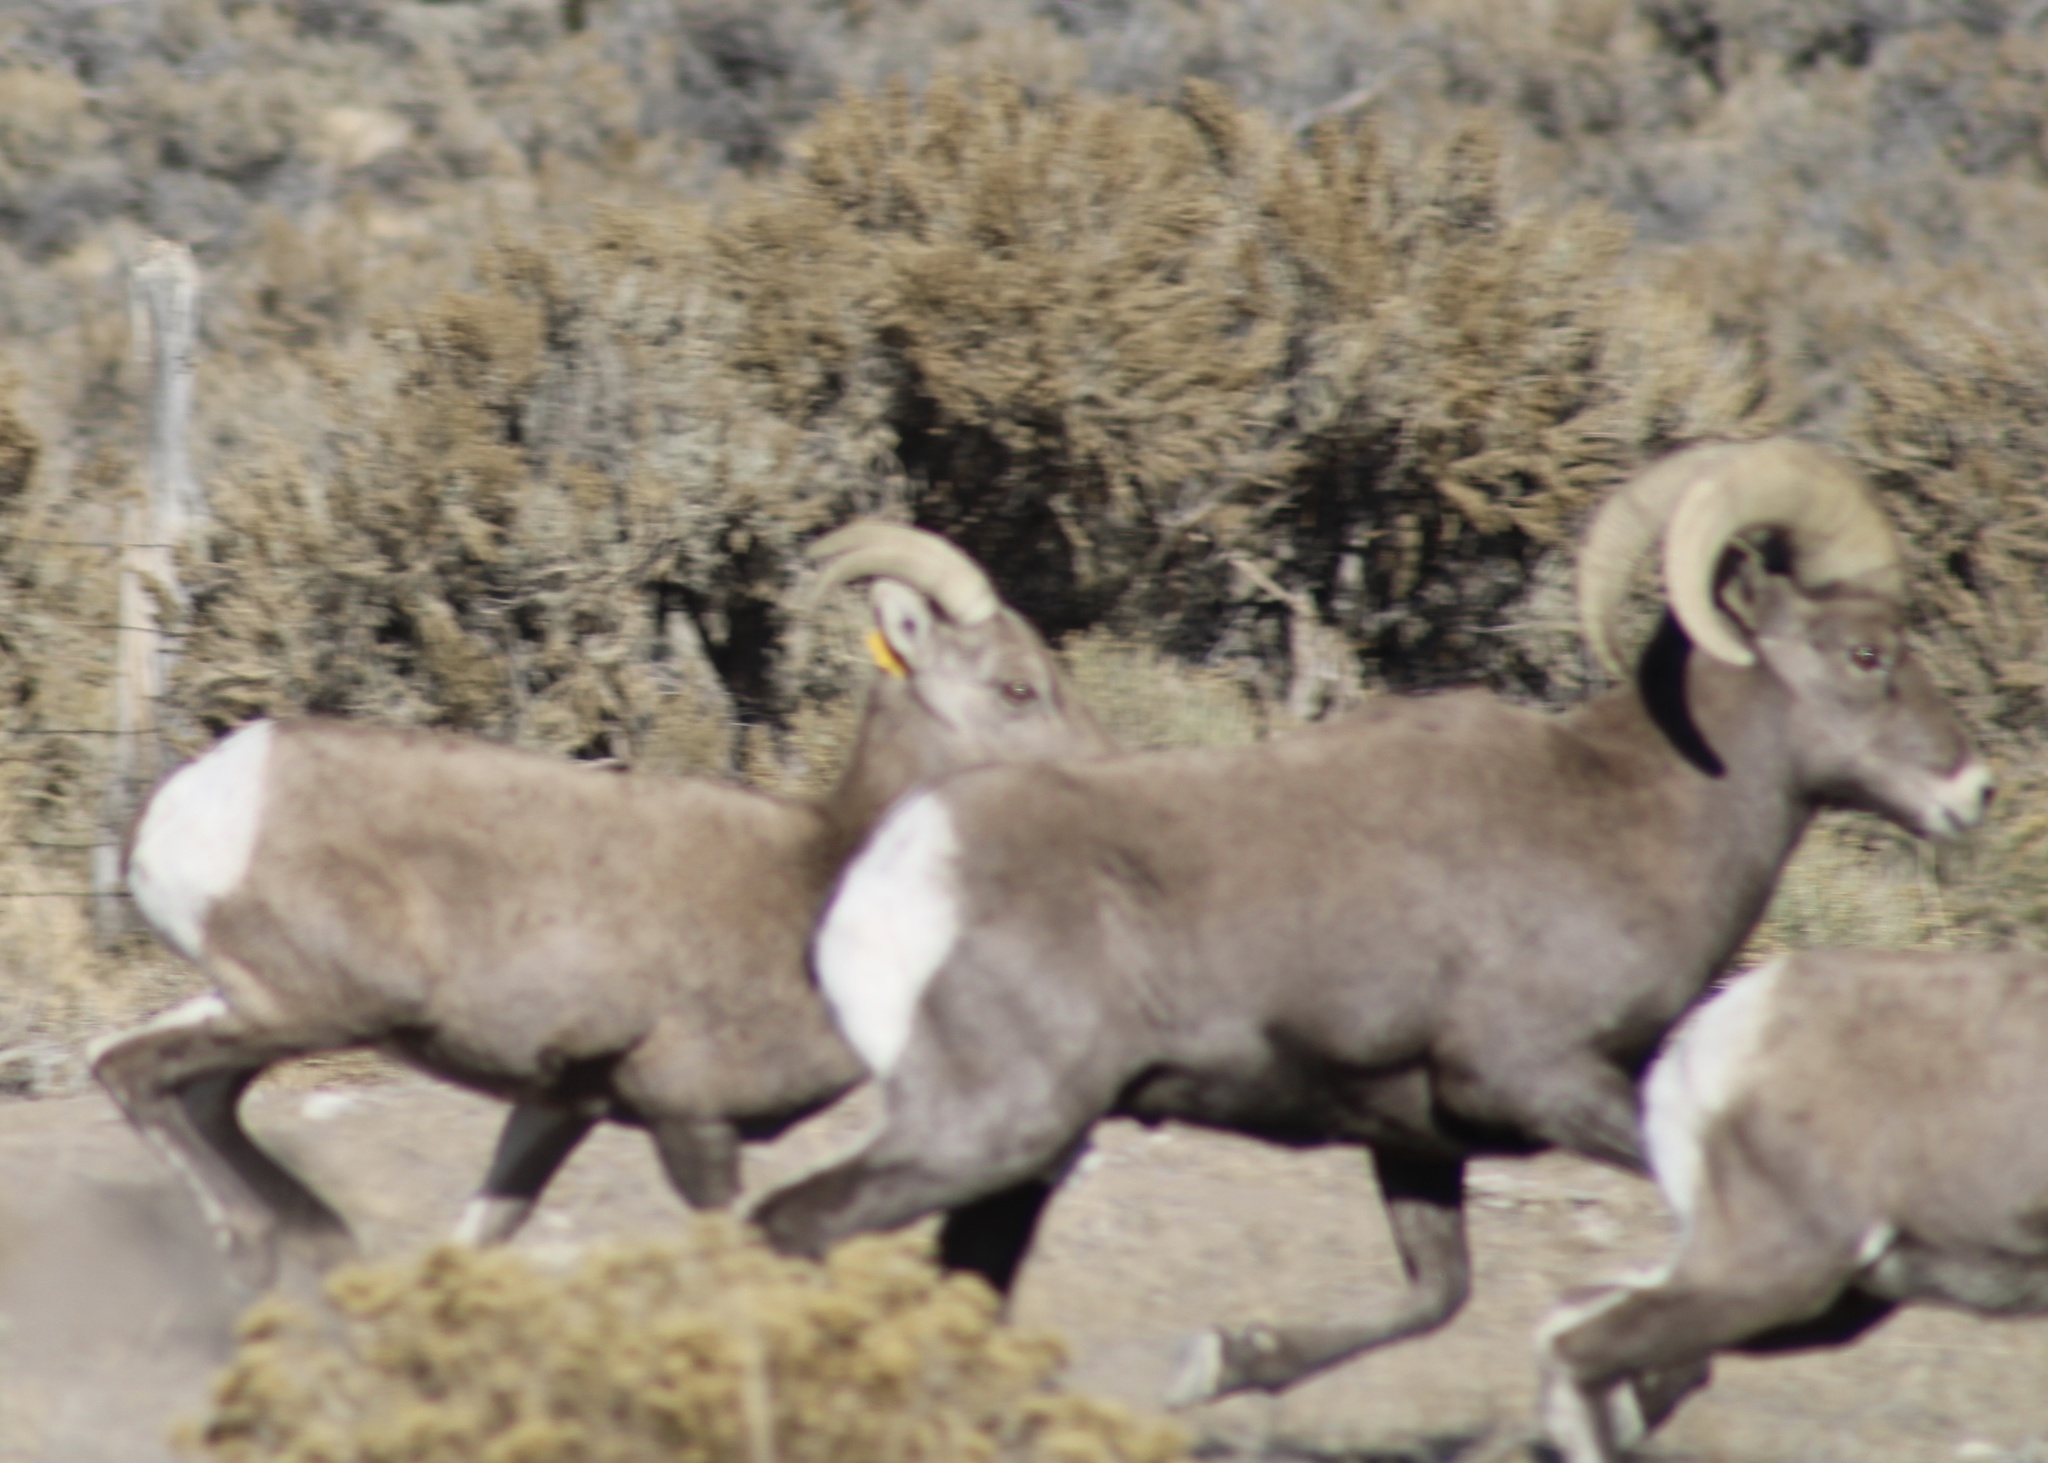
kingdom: Animalia
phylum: Chordata
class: Mammalia
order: Artiodactyla
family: Bovidae
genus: Ovis
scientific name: Ovis canadensis
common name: Bighorn sheep
